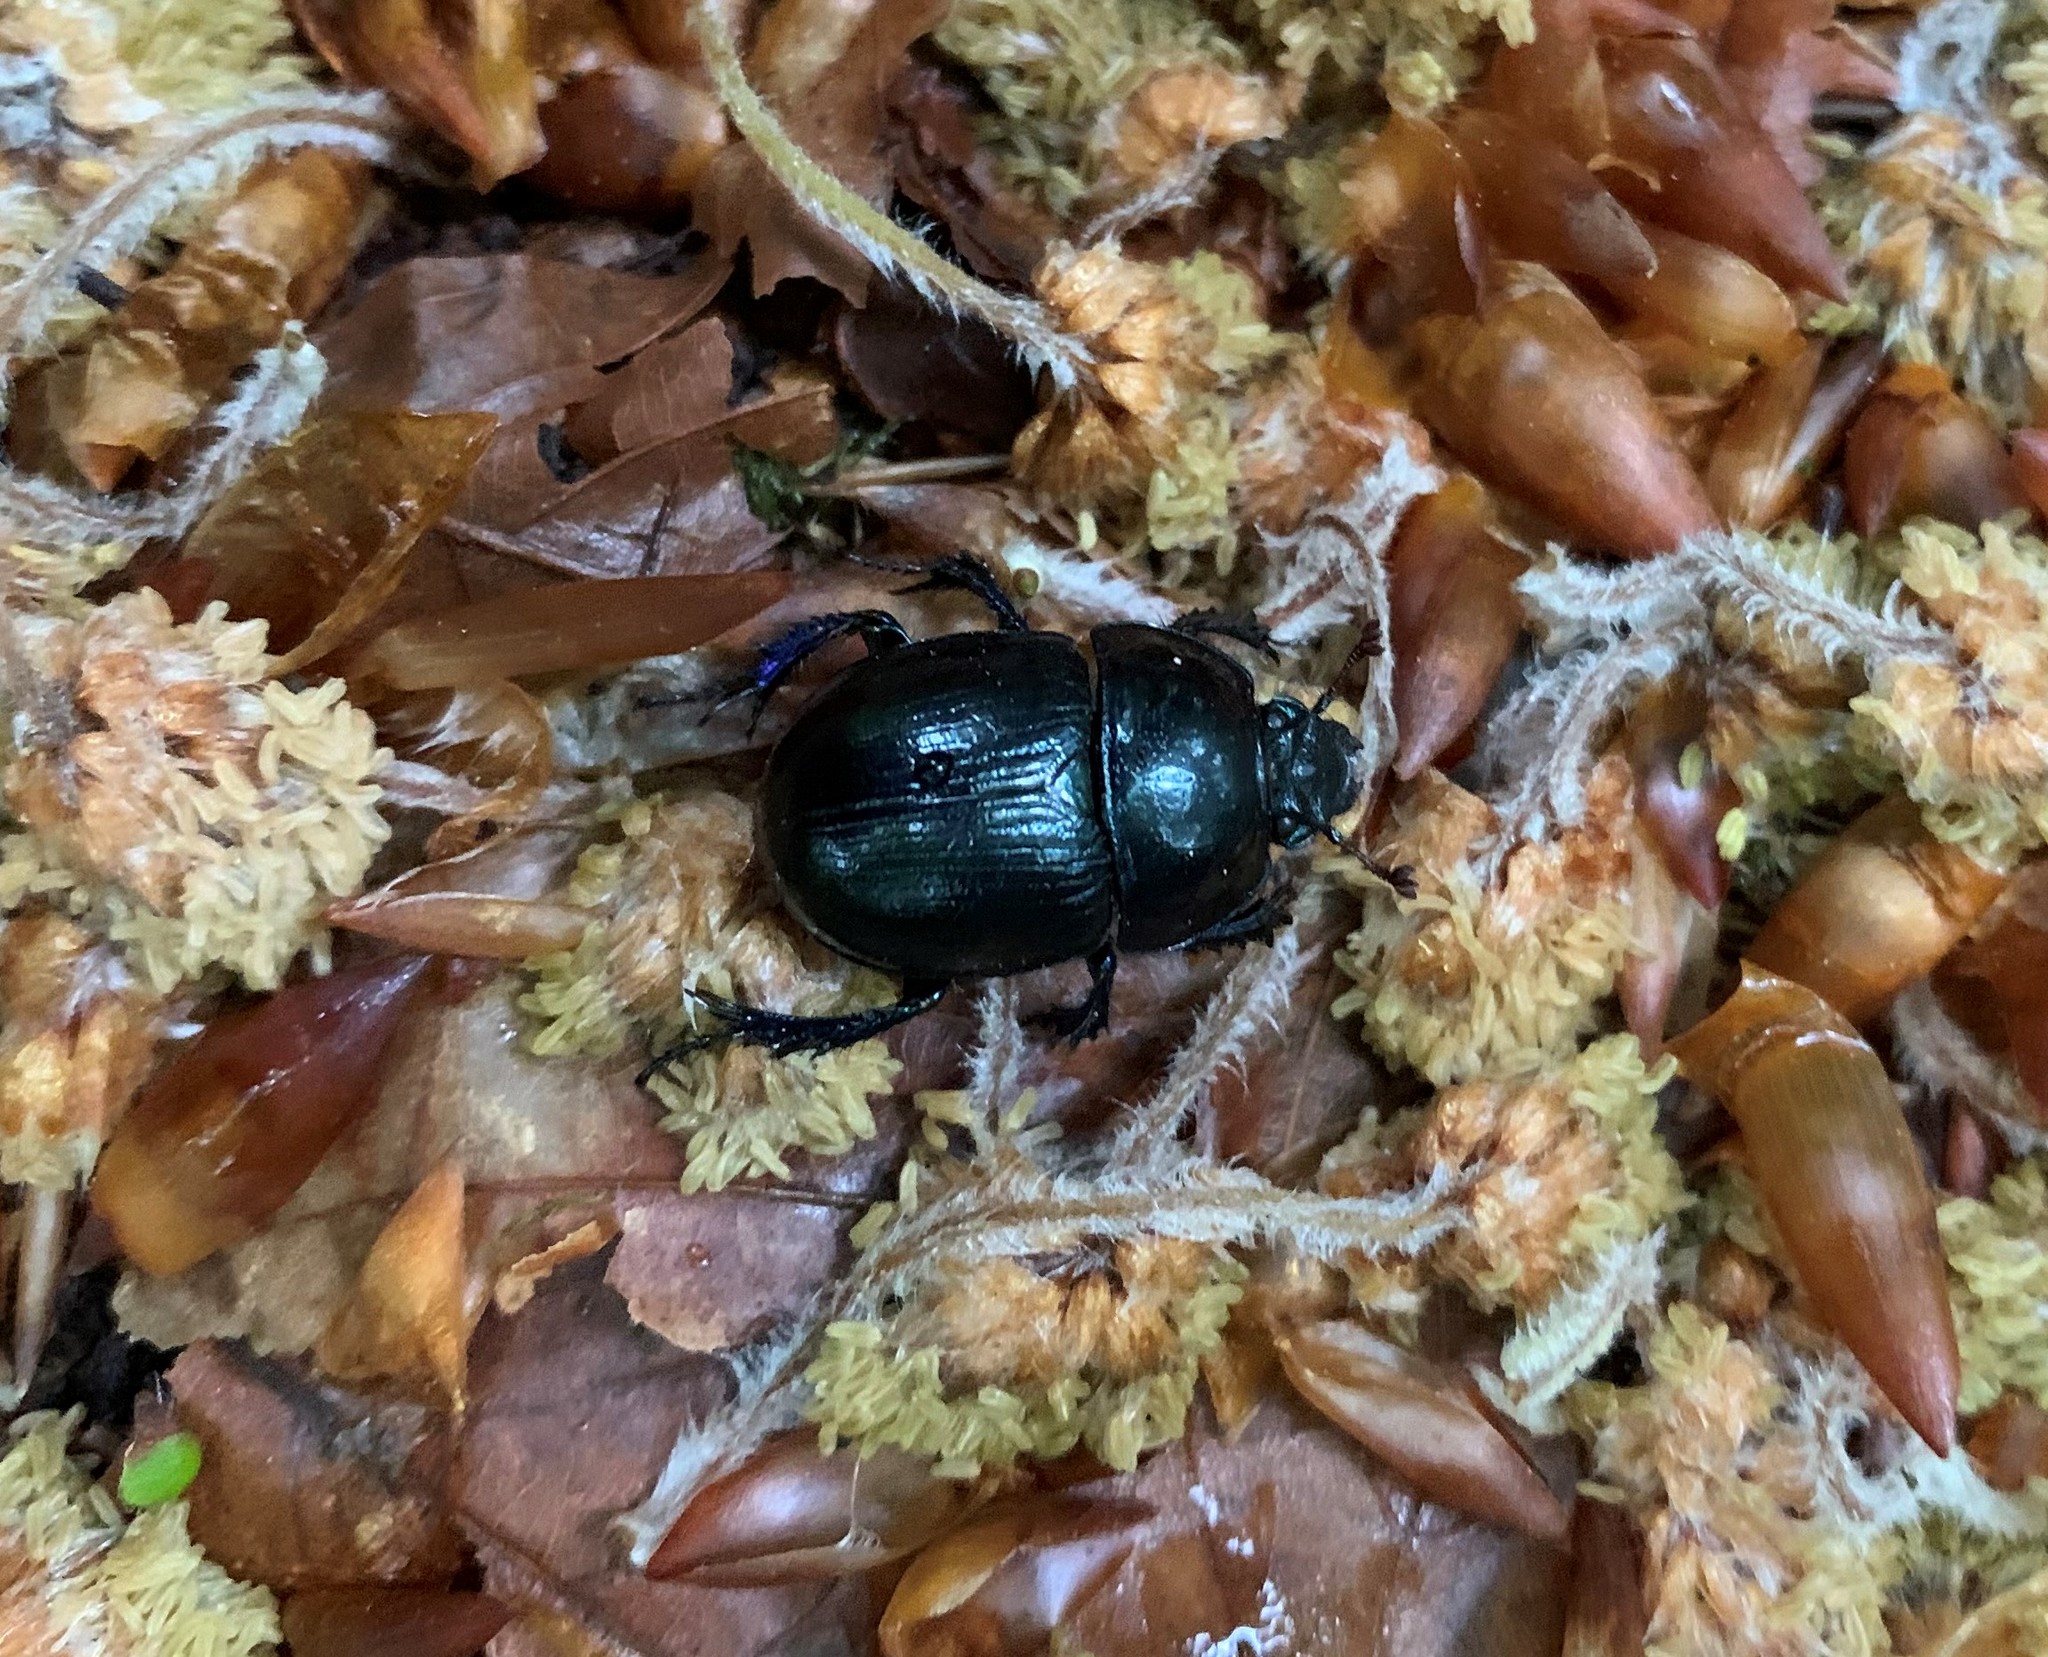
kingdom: Animalia
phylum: Arthropoda
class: Insecta
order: Coleoptera
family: Geotrupidae
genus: Anoplotrupes
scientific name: Anoplotrupes stercorosus
